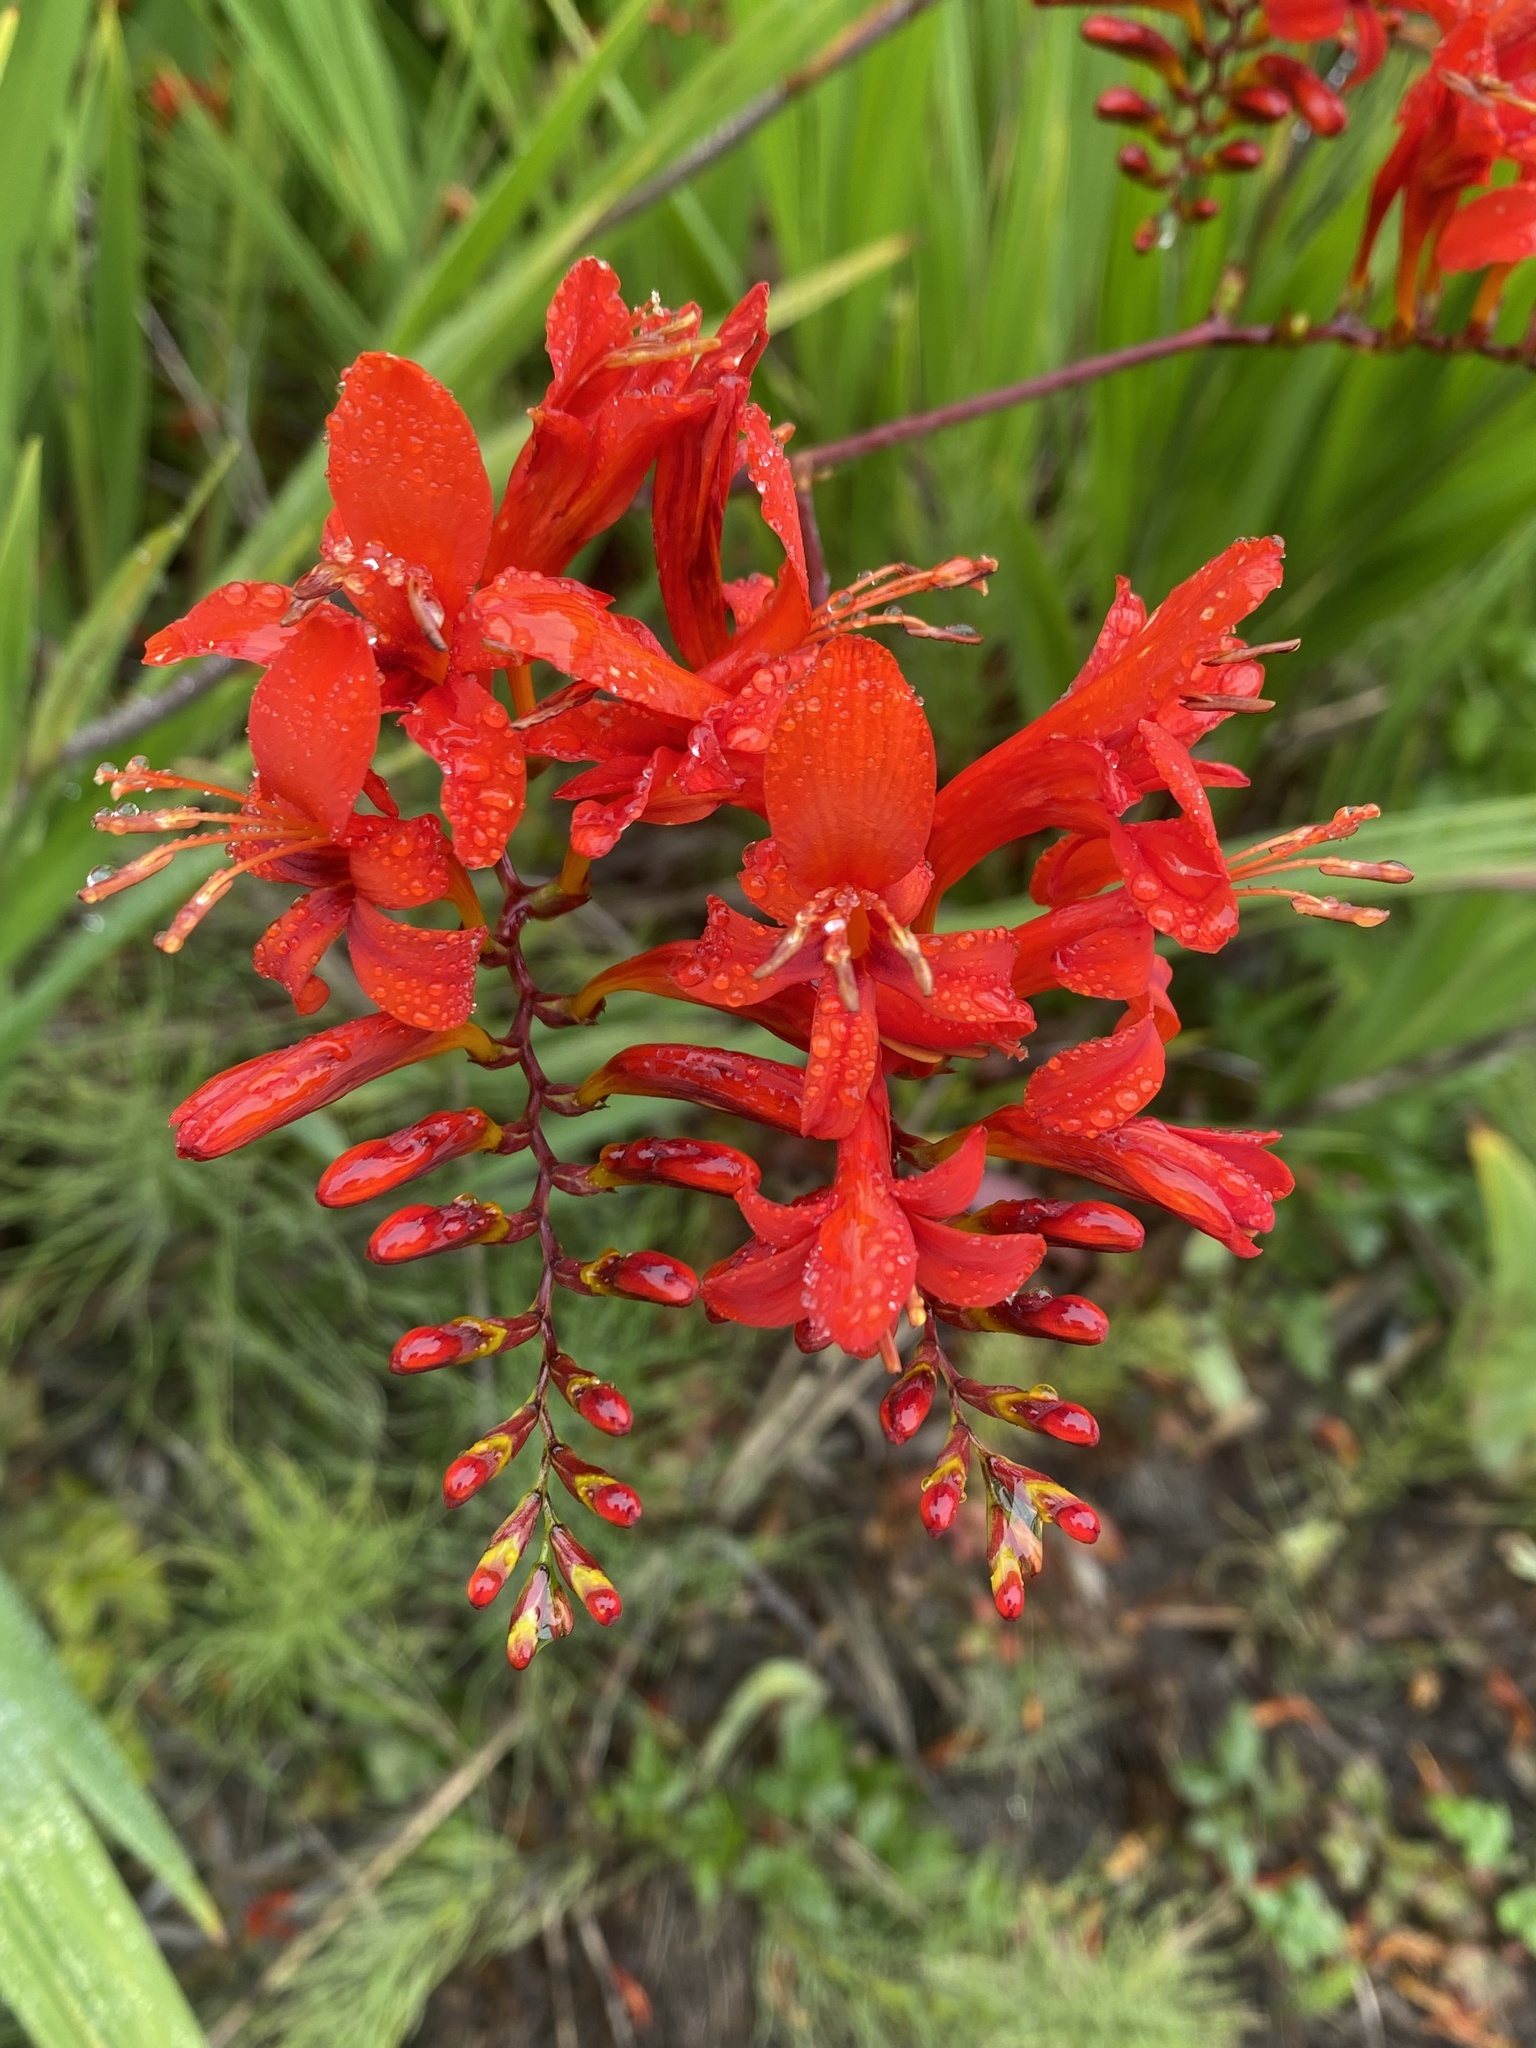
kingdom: Plantae
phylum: Tracheophyta
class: Liliopsida
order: Asparagales
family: Iridaceae
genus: Crocosmia
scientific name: Crocosmia
